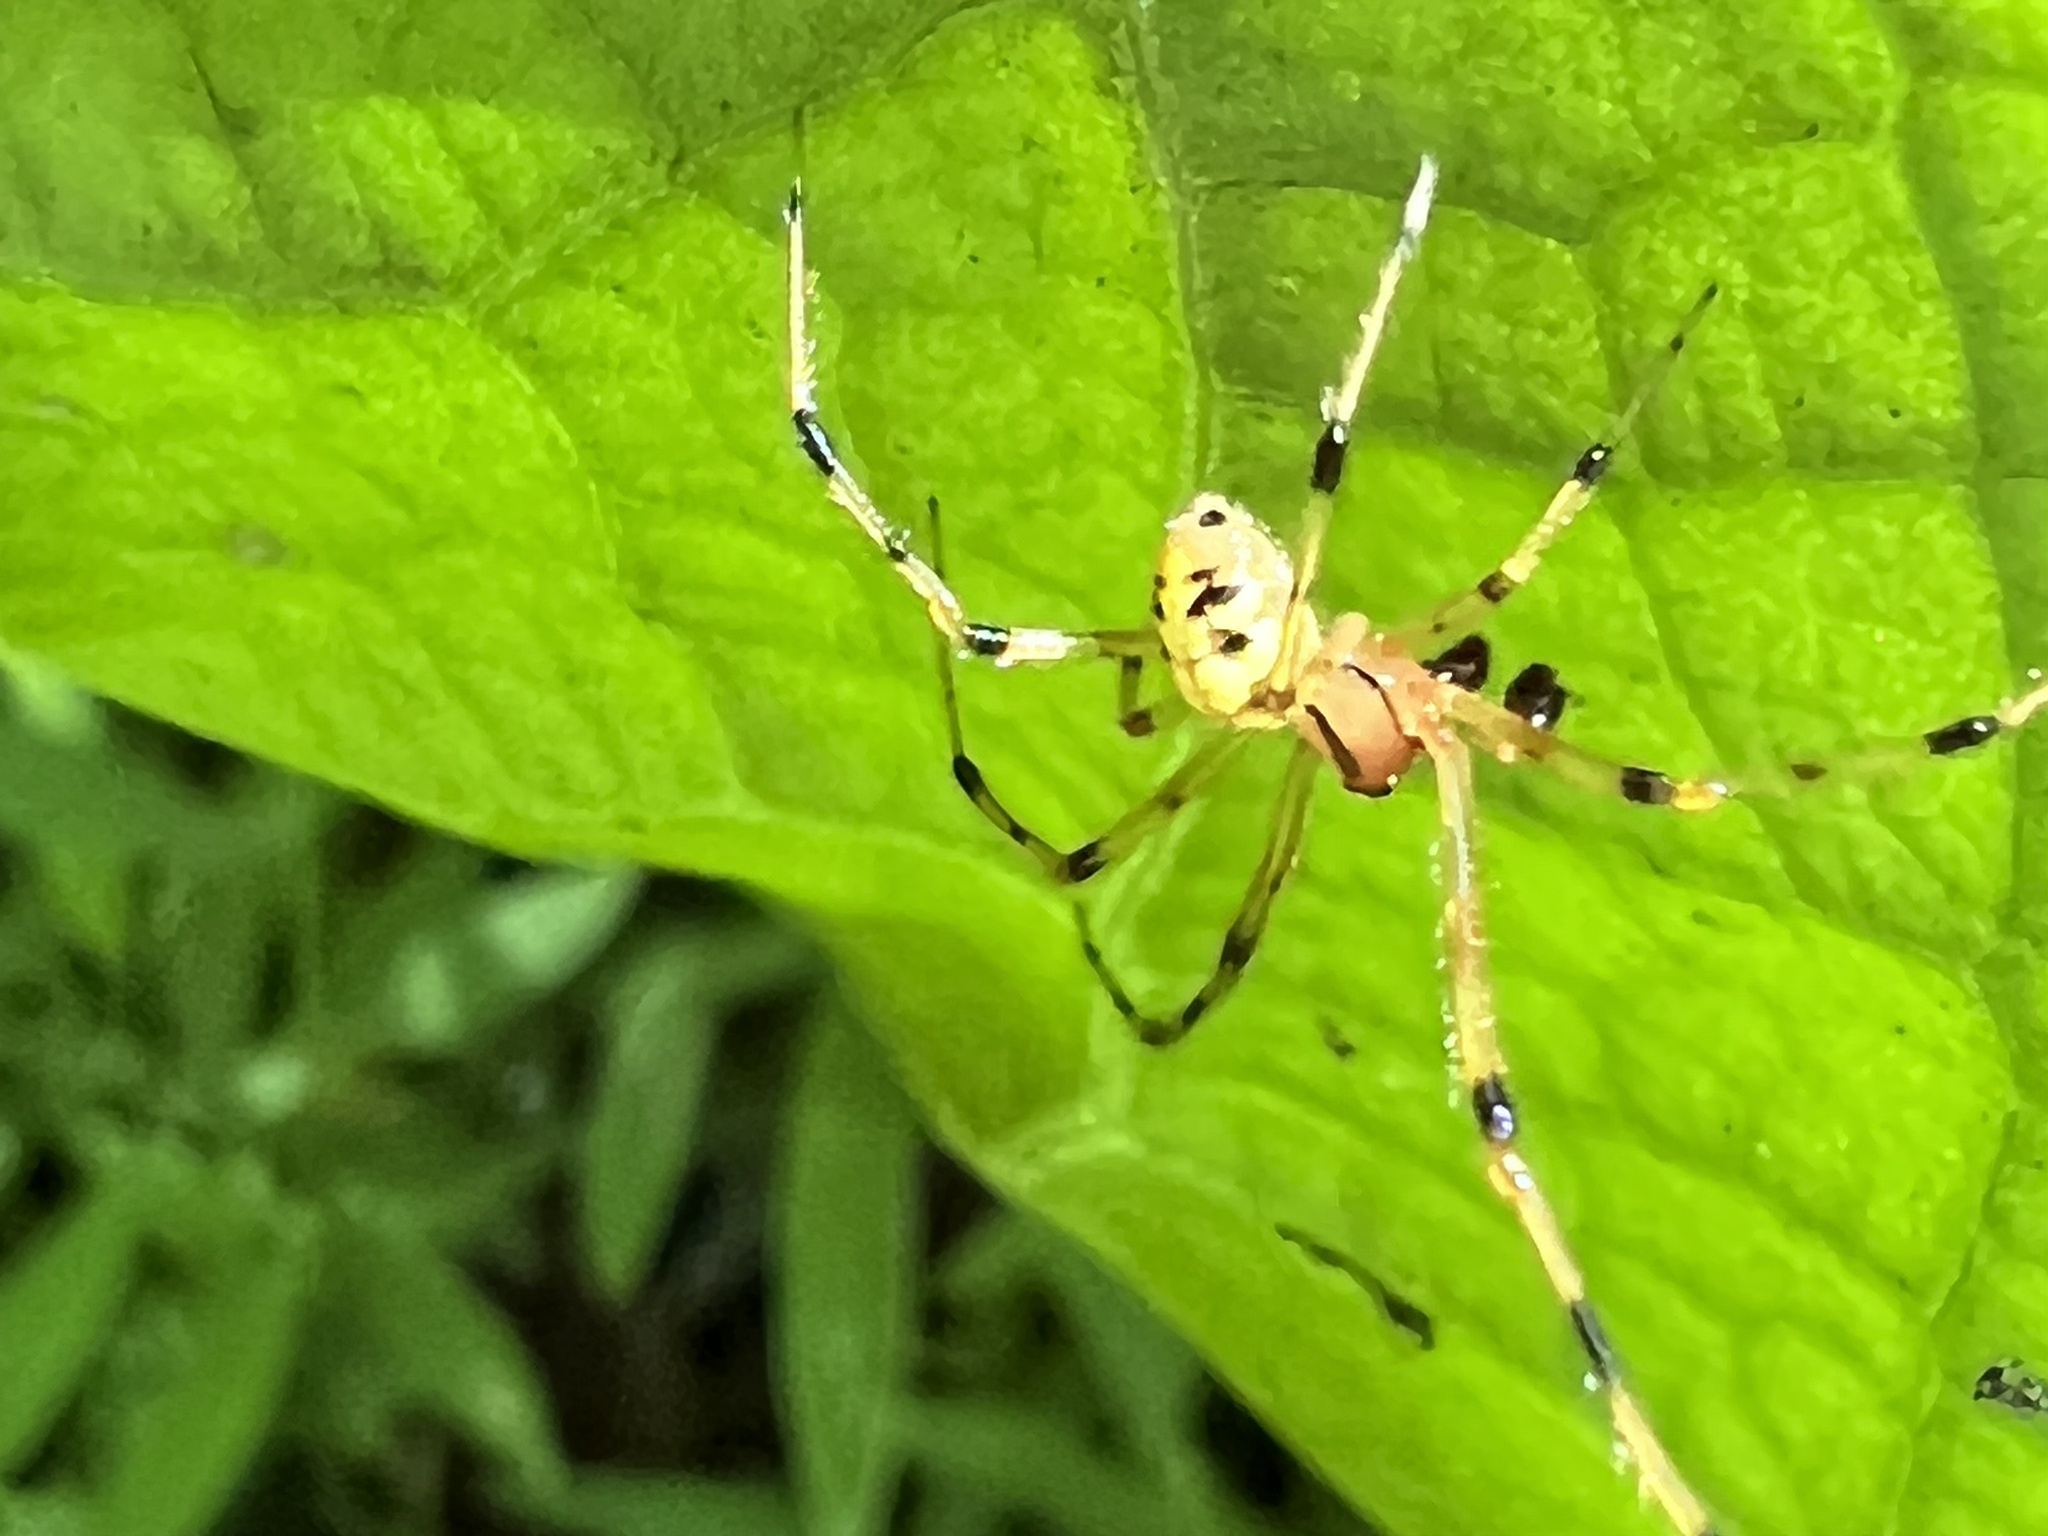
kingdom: Animalia
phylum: Arthropoda
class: Arachnida
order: Araneae
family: Theridiidae
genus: Phylloneta
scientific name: Phylloneta pictipes
